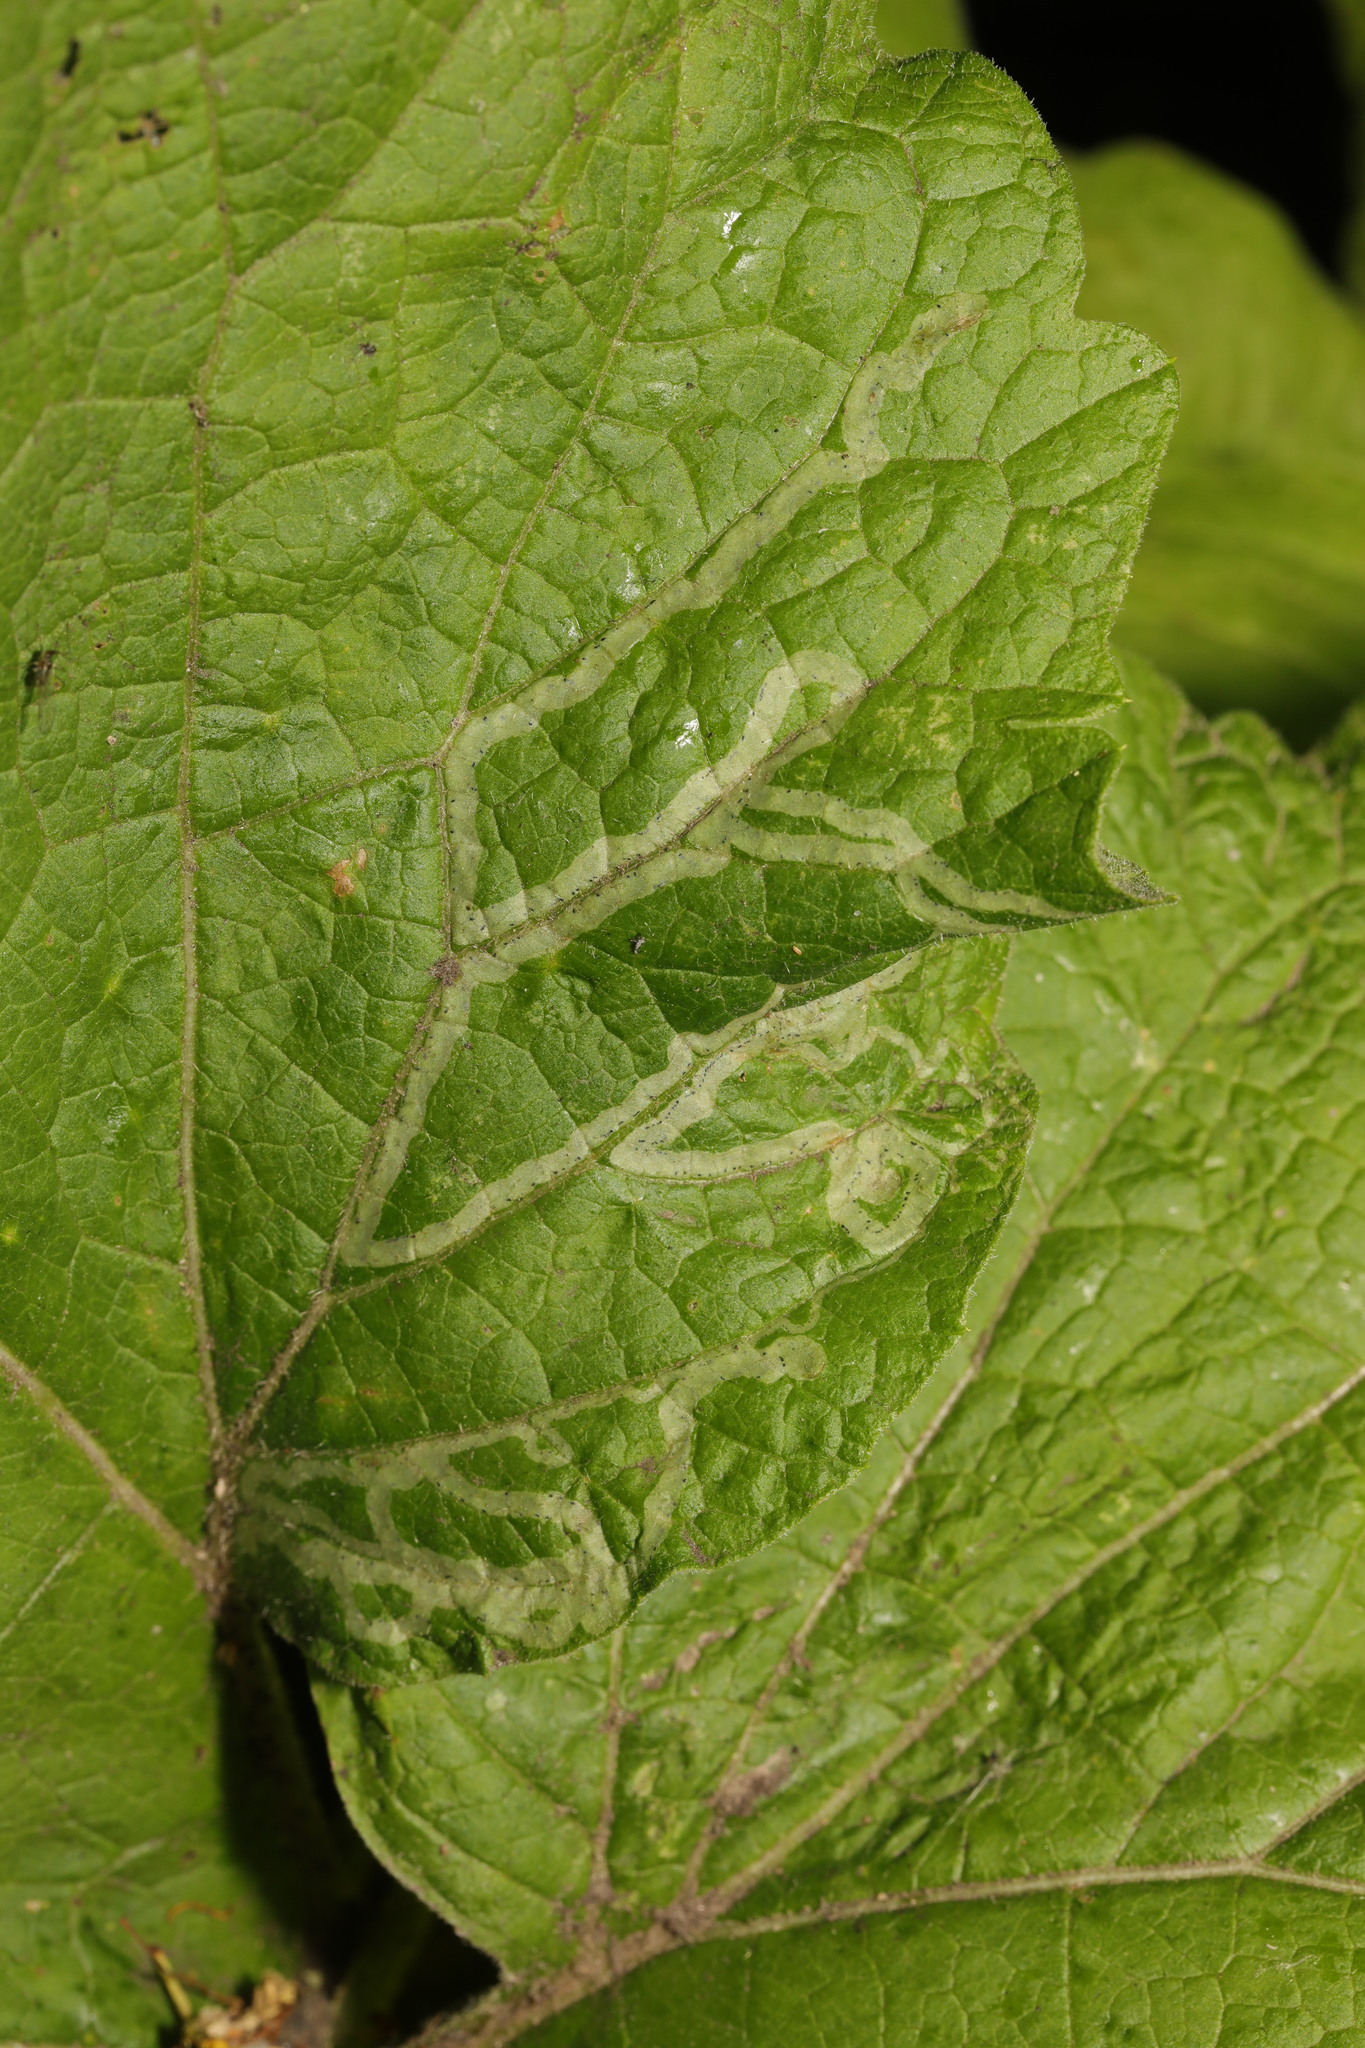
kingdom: Animalia
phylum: Arthropoda
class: Insecta
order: Diptera
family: Agromyzidae
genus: Phytomyza
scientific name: Phytomyza lappae
